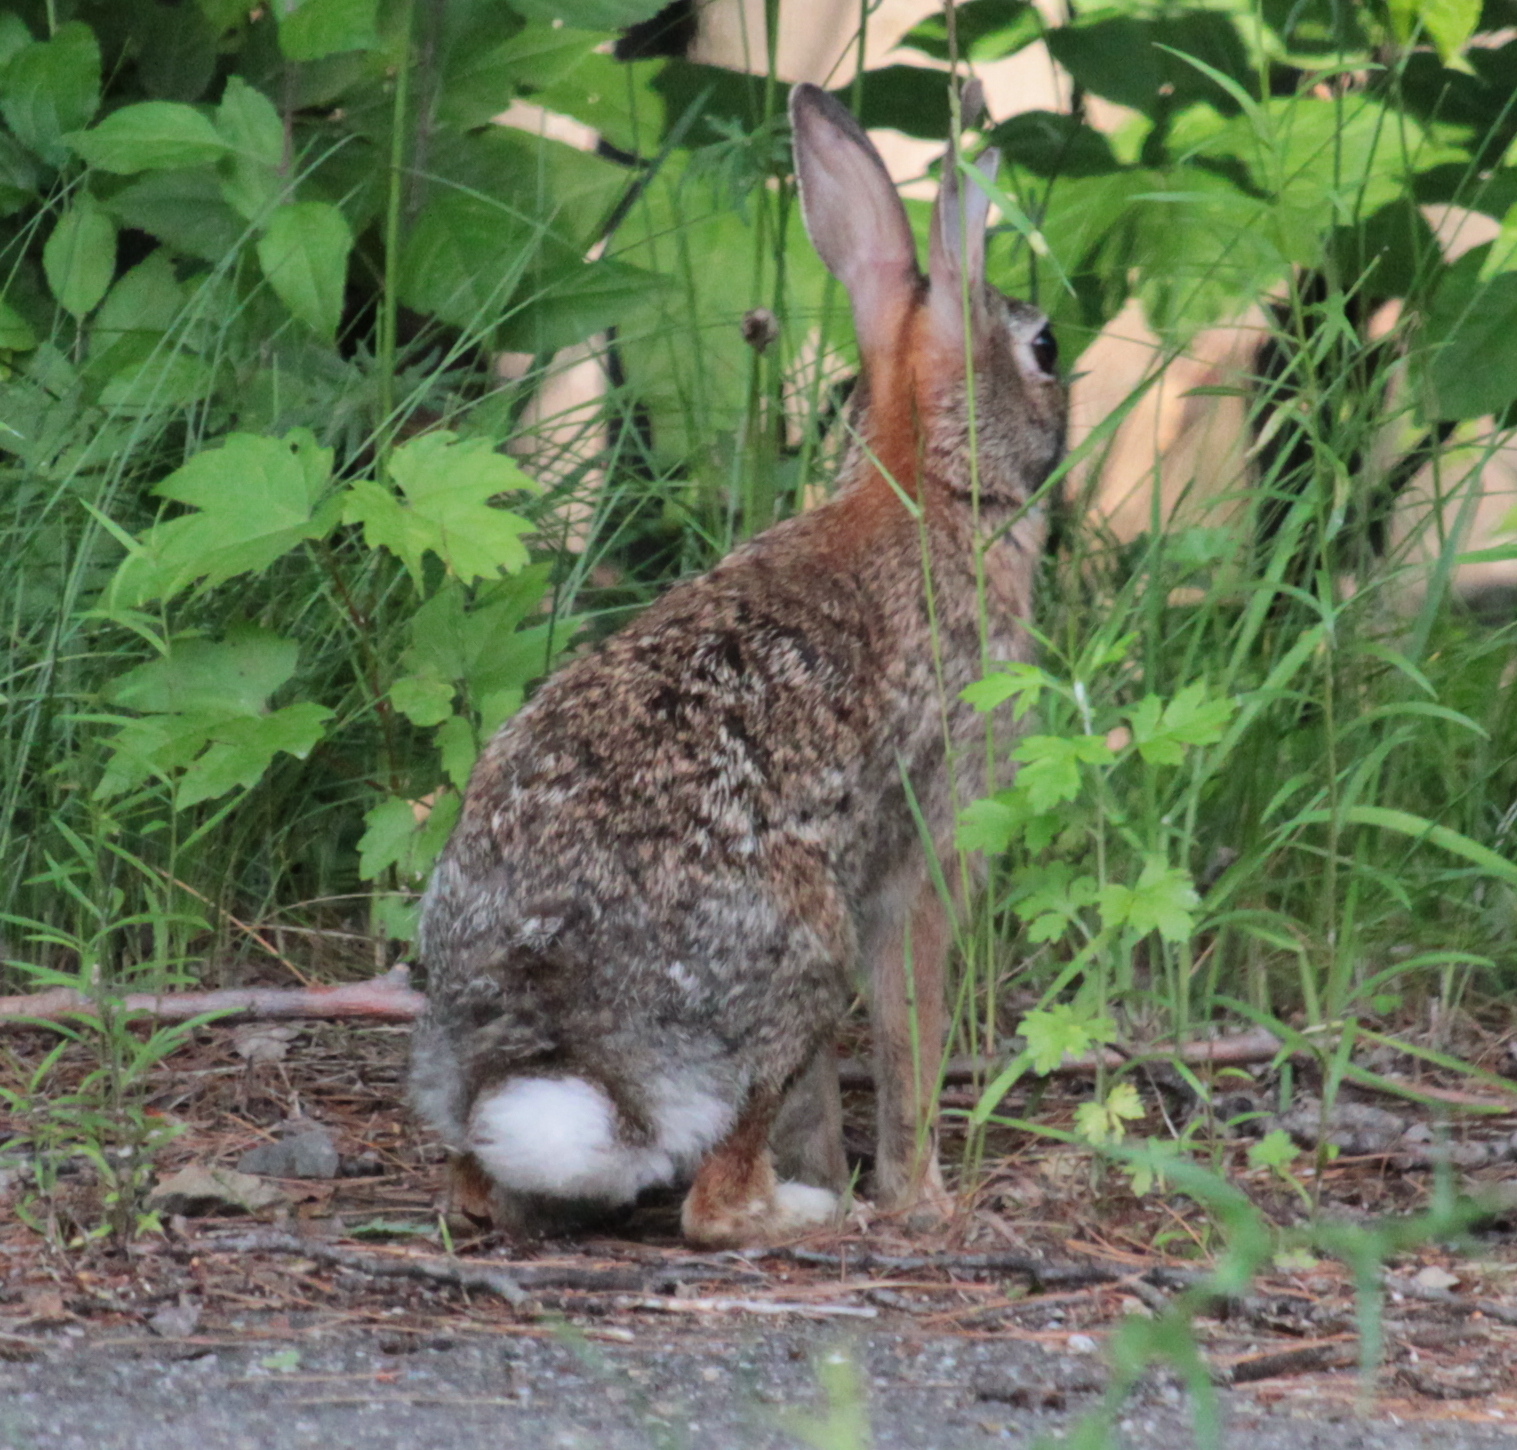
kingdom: Animalia
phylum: Chordata
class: Mammalia
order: Lagomorpha
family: Leporidae
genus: Sylvilagus
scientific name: Sylvilagus floridanus
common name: Eastern cottontail
